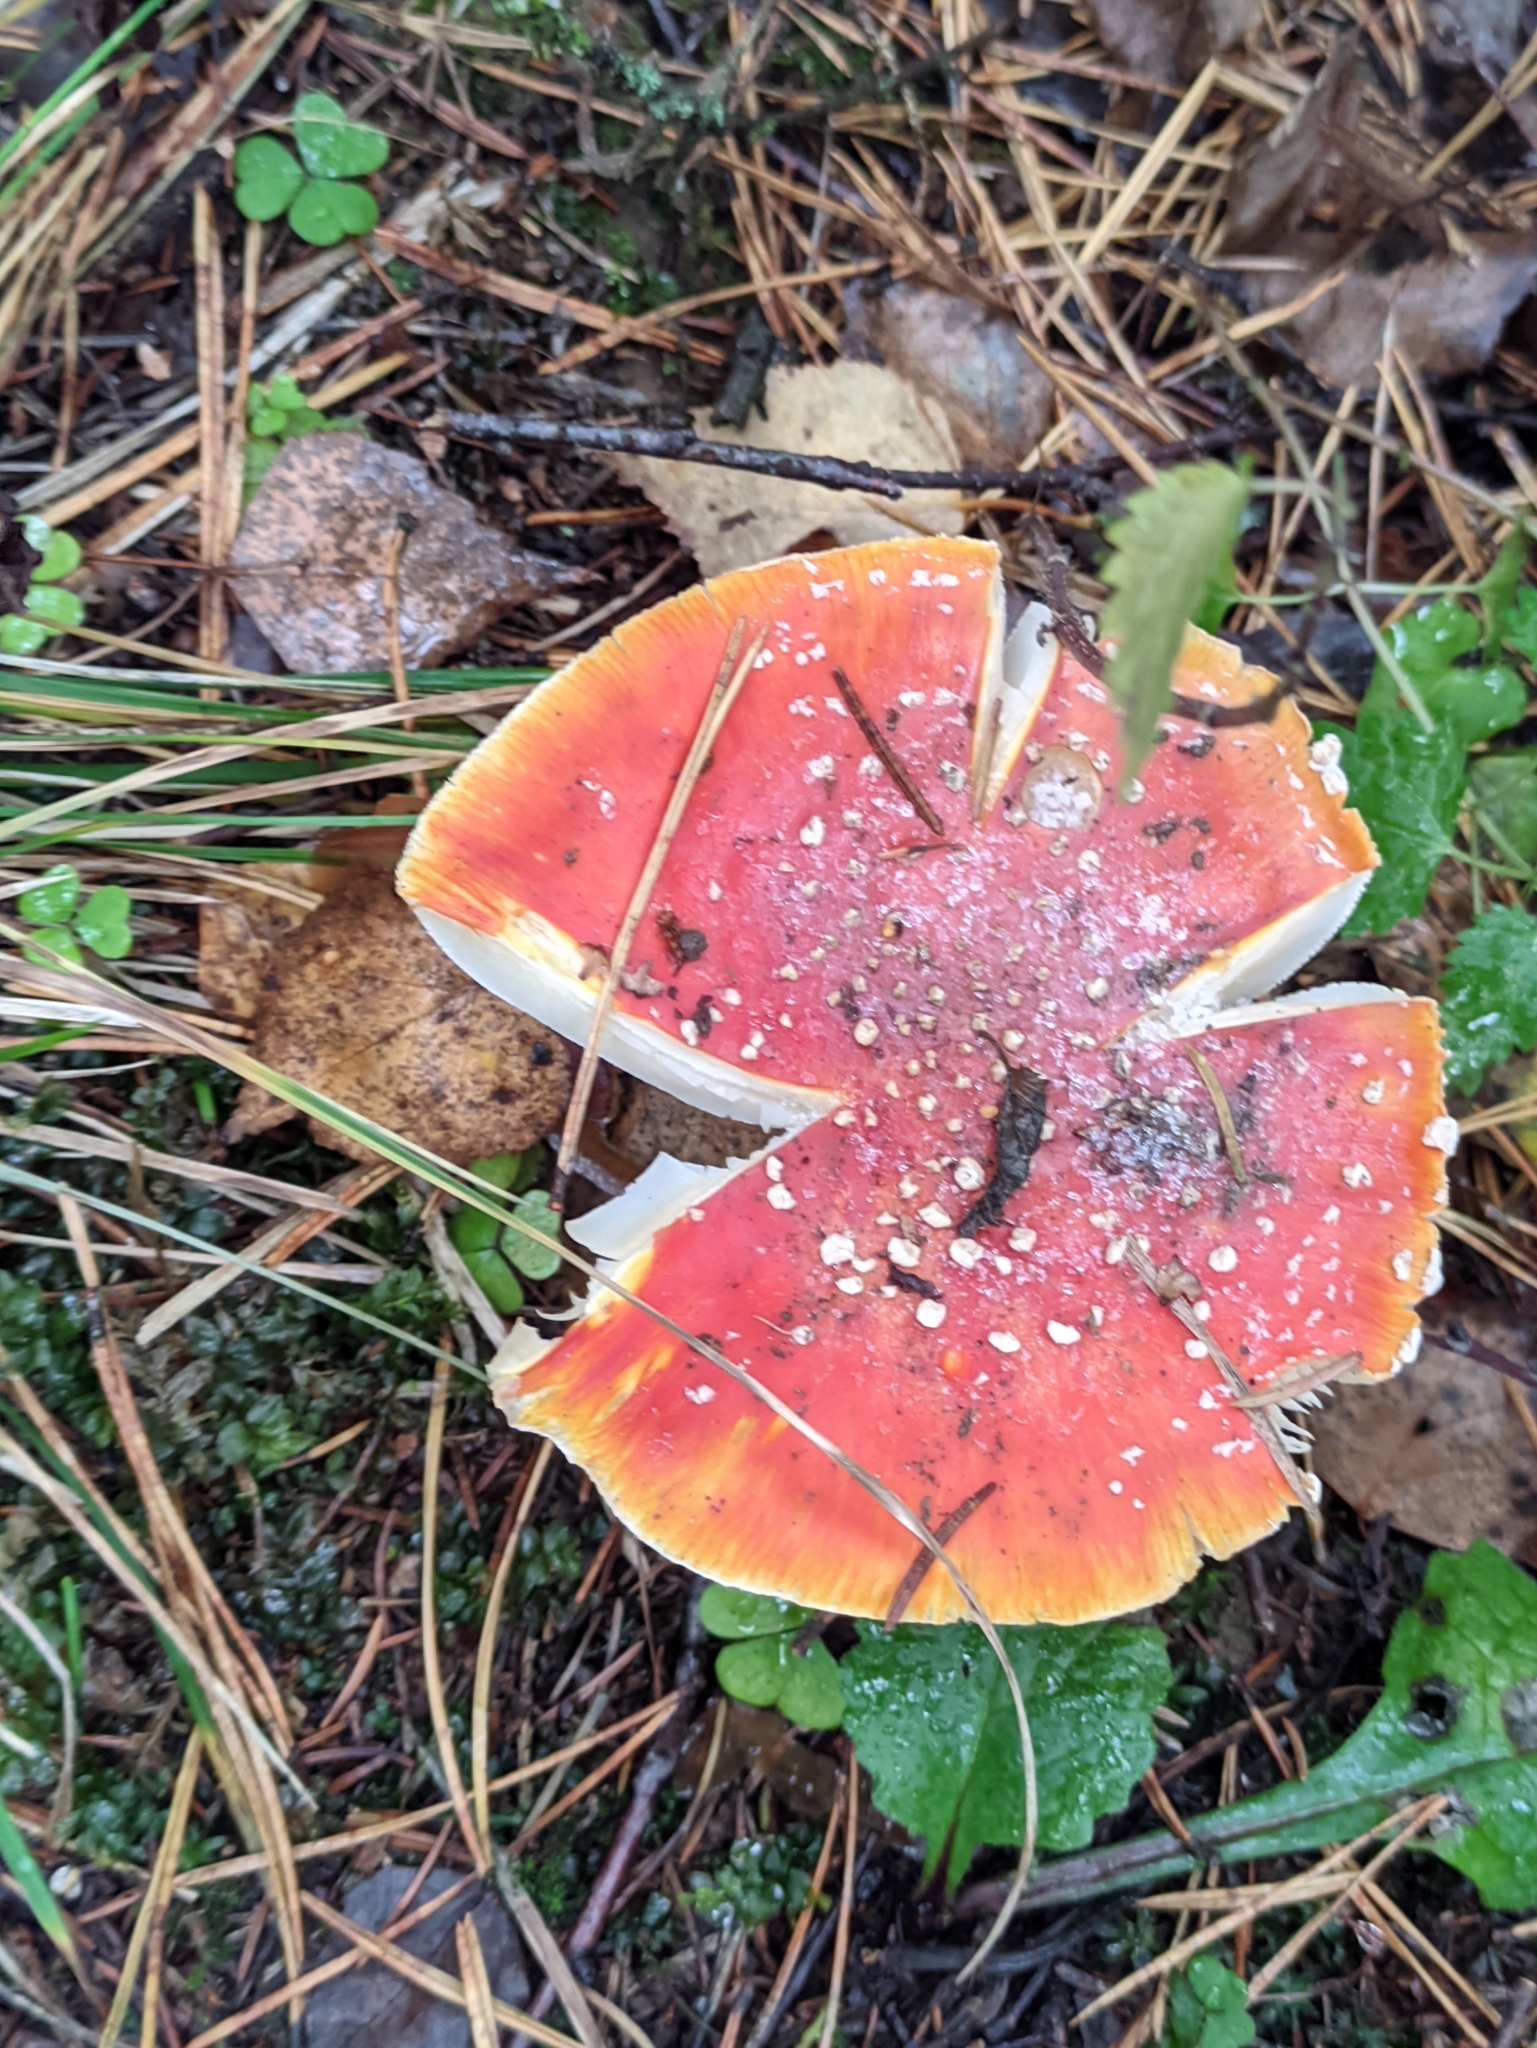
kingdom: Fungi
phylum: Basidiomycota
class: Agaricomycetes
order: Agaricales
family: Amanitaceae
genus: Amanita
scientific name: Amanita muscaria
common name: Fly agaric
